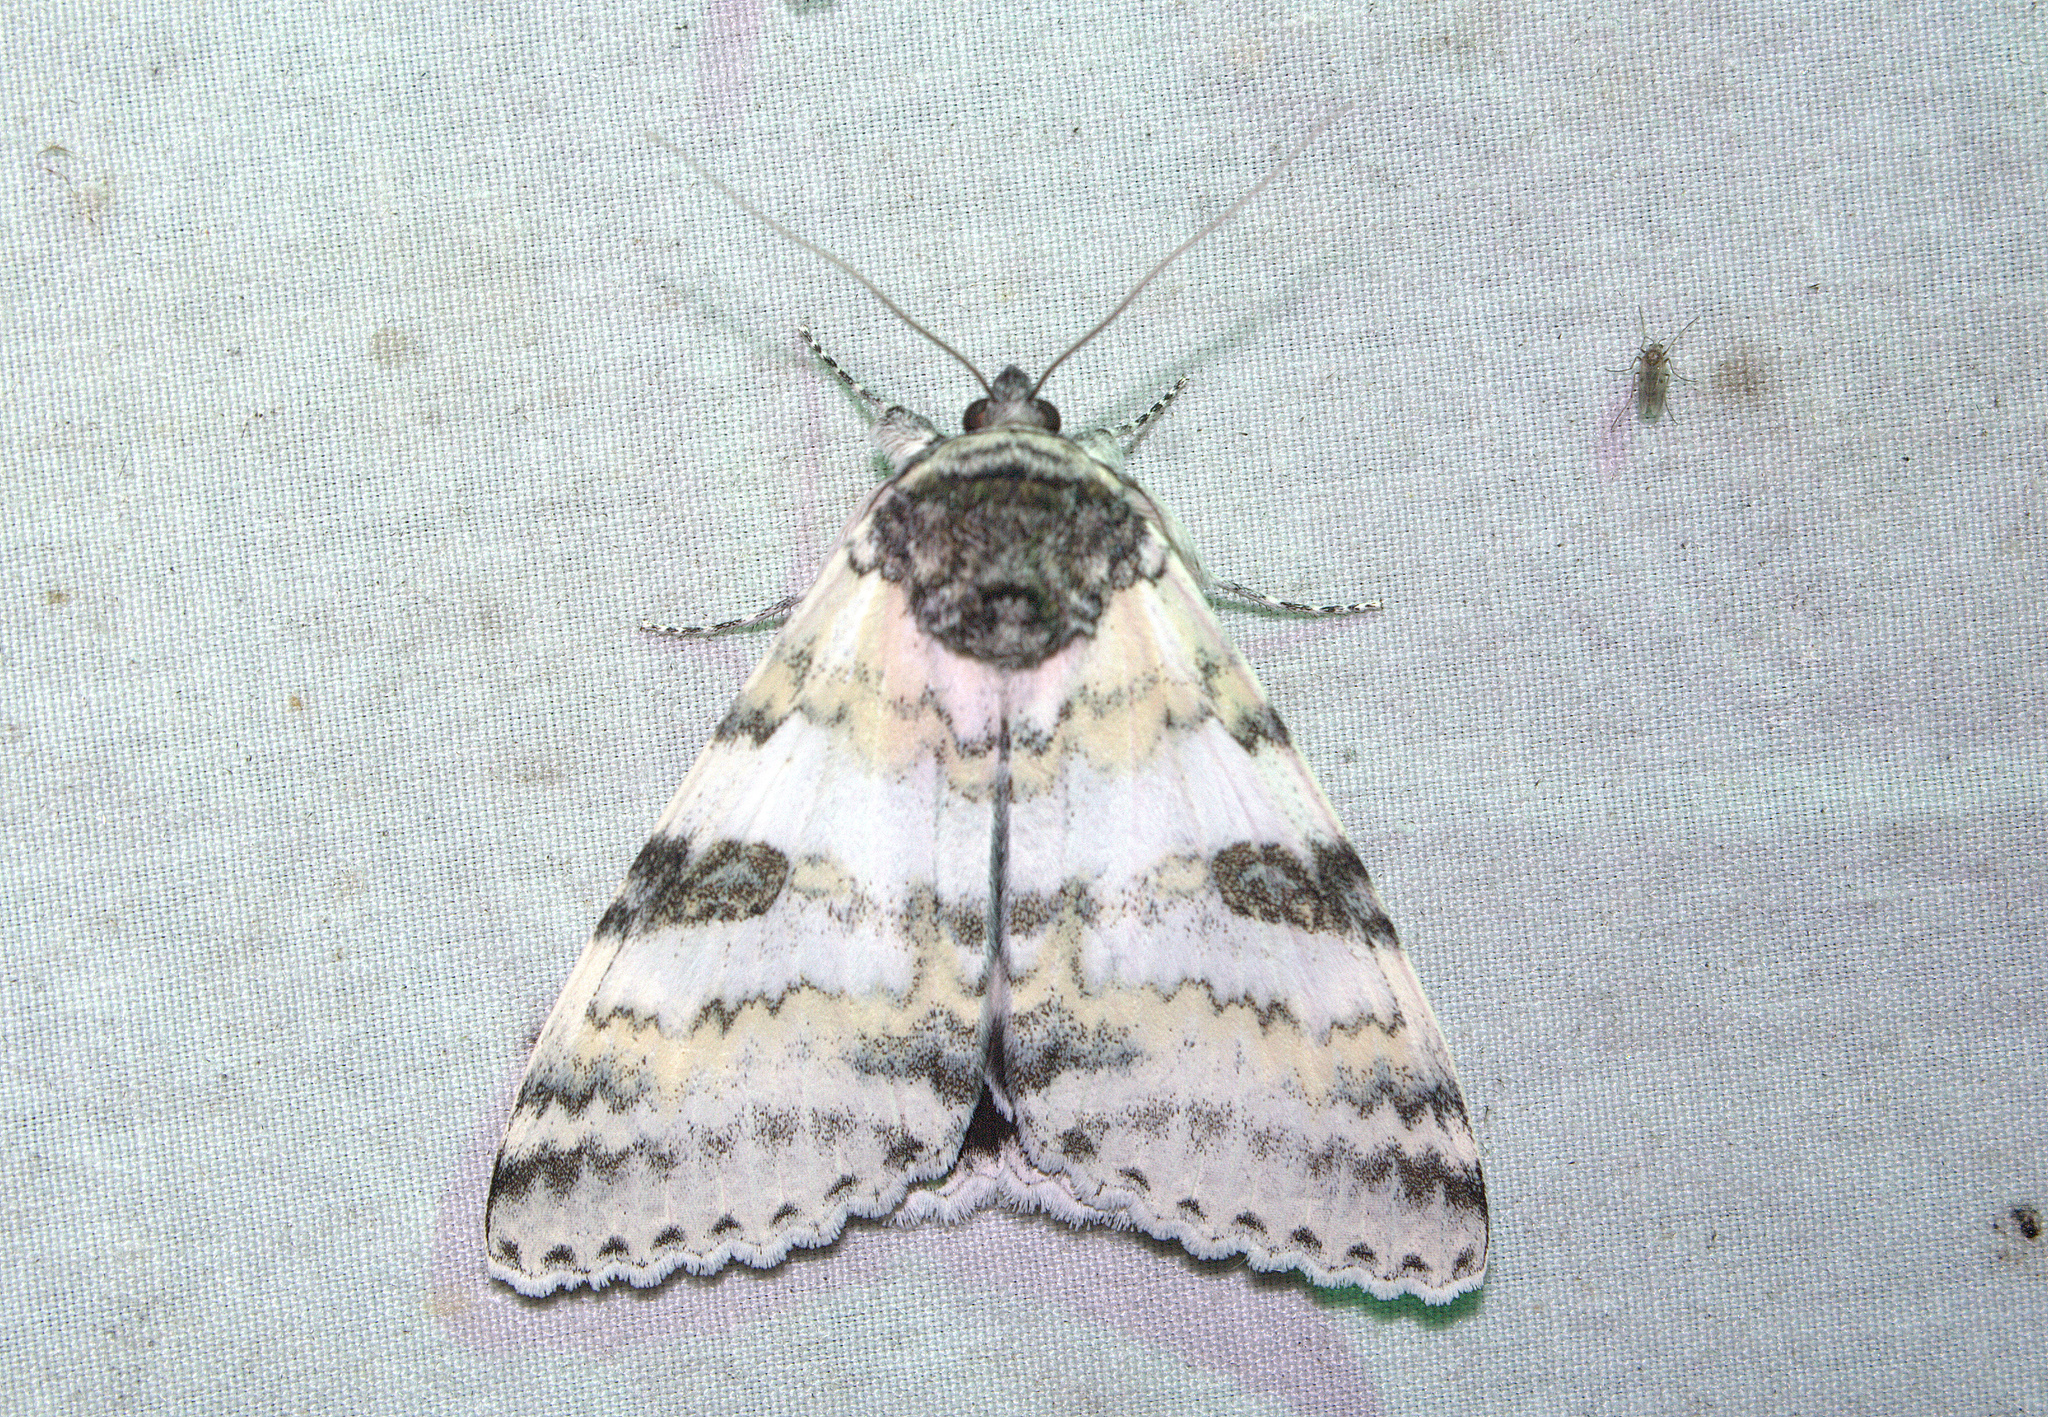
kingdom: Animalia
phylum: Arthropoda
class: Insecta
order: Lepidoptera
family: Erebidae
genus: Catocala
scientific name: Catocala relicta
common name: White underwing
